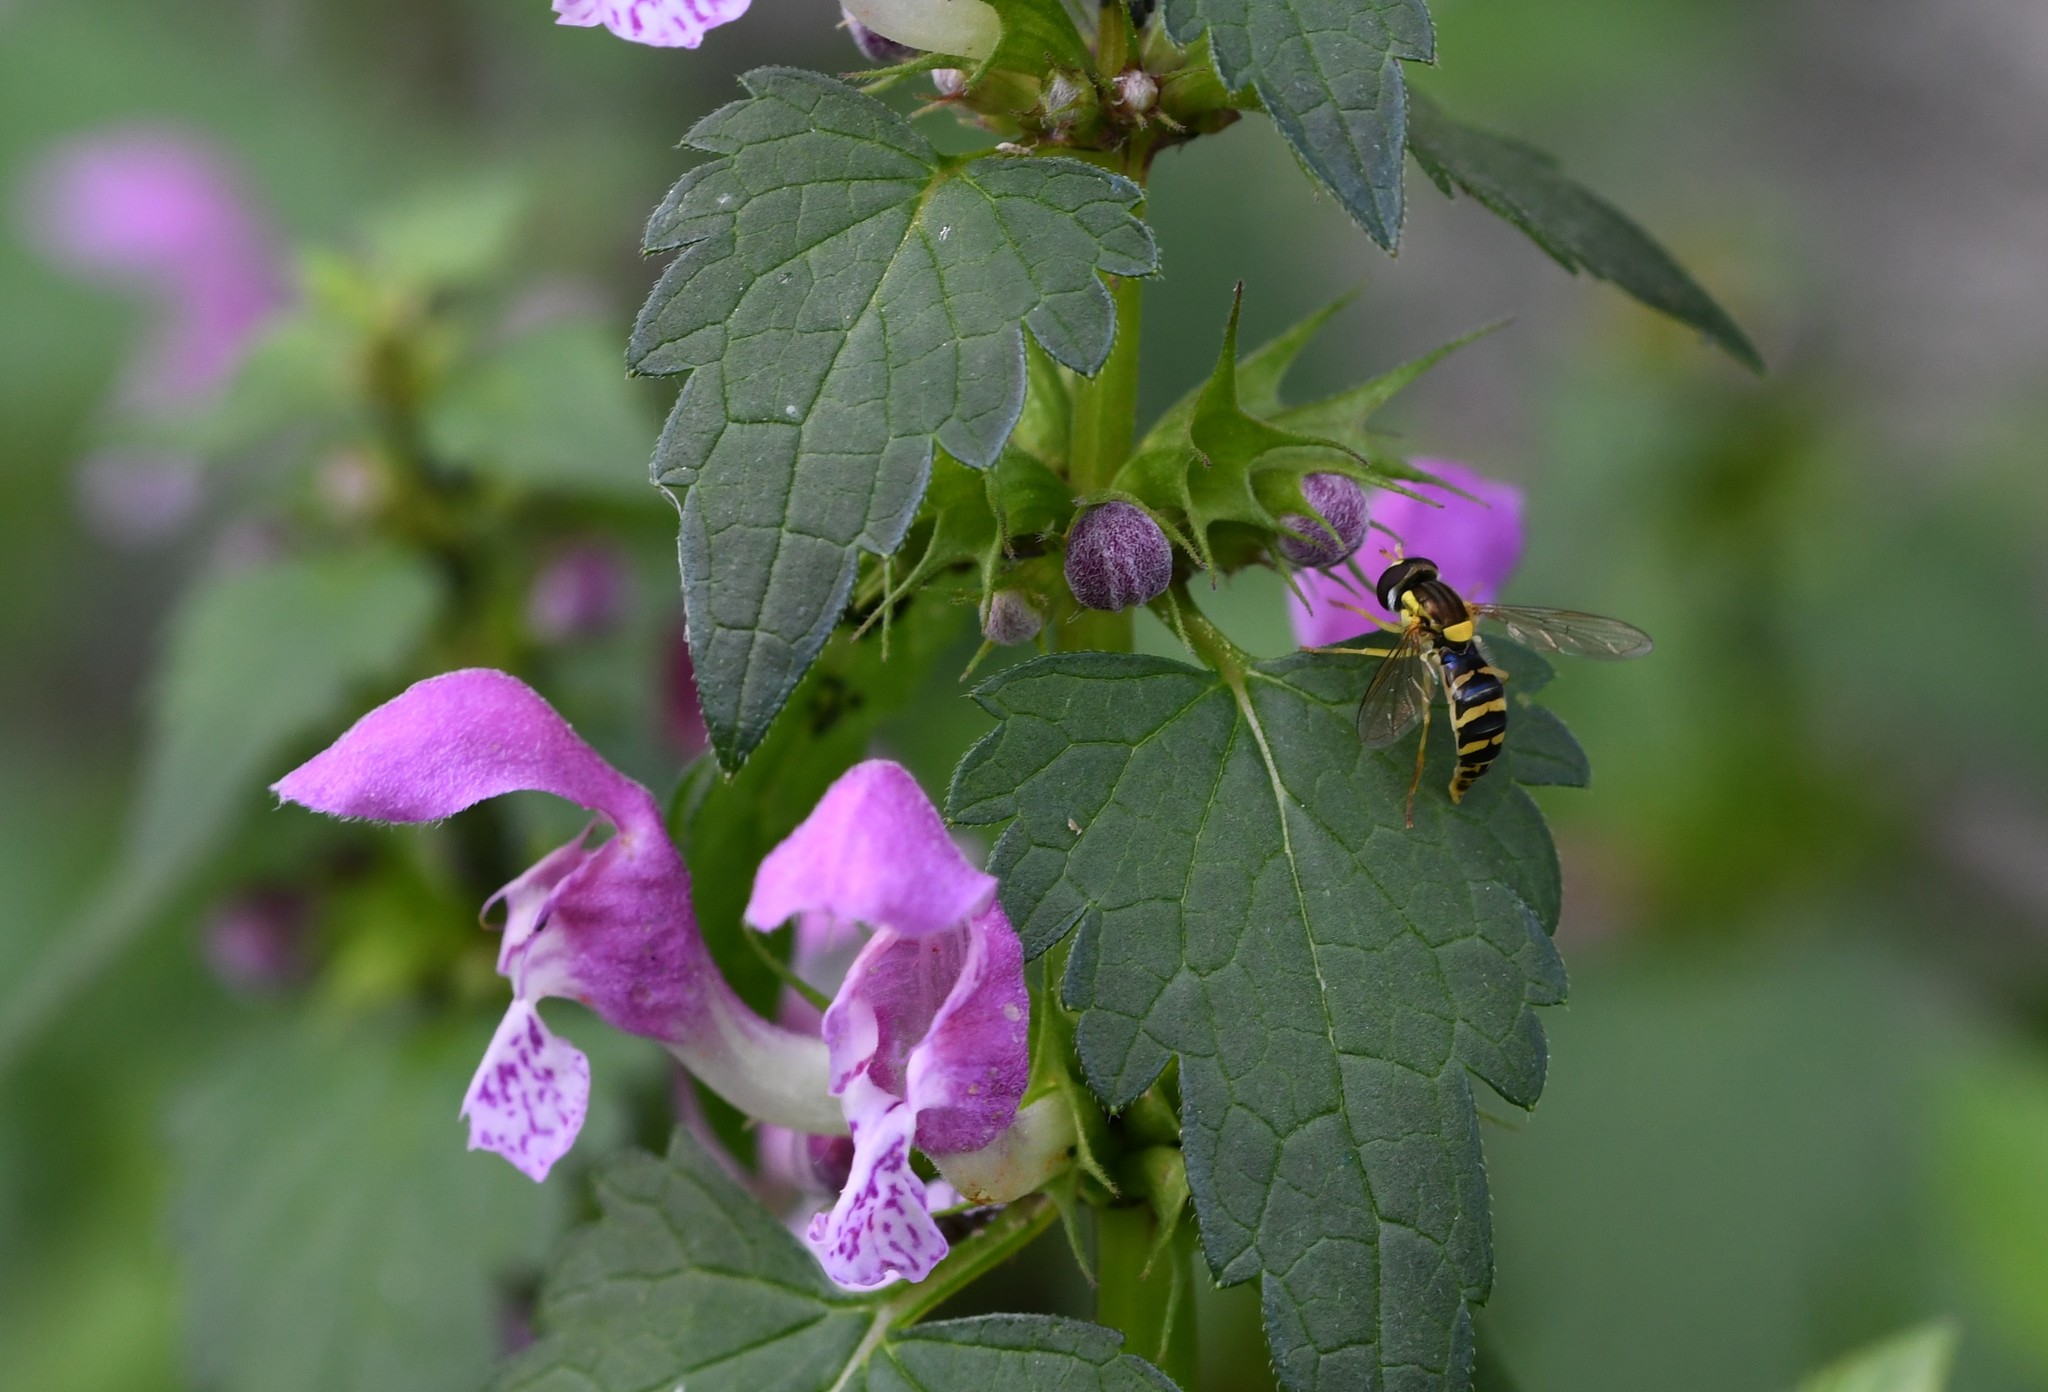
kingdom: Animalia
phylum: Arthropoda
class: Insecta
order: Diptera
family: Syrphidae
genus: Sphaerophoria
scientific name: Sphaerophoria
